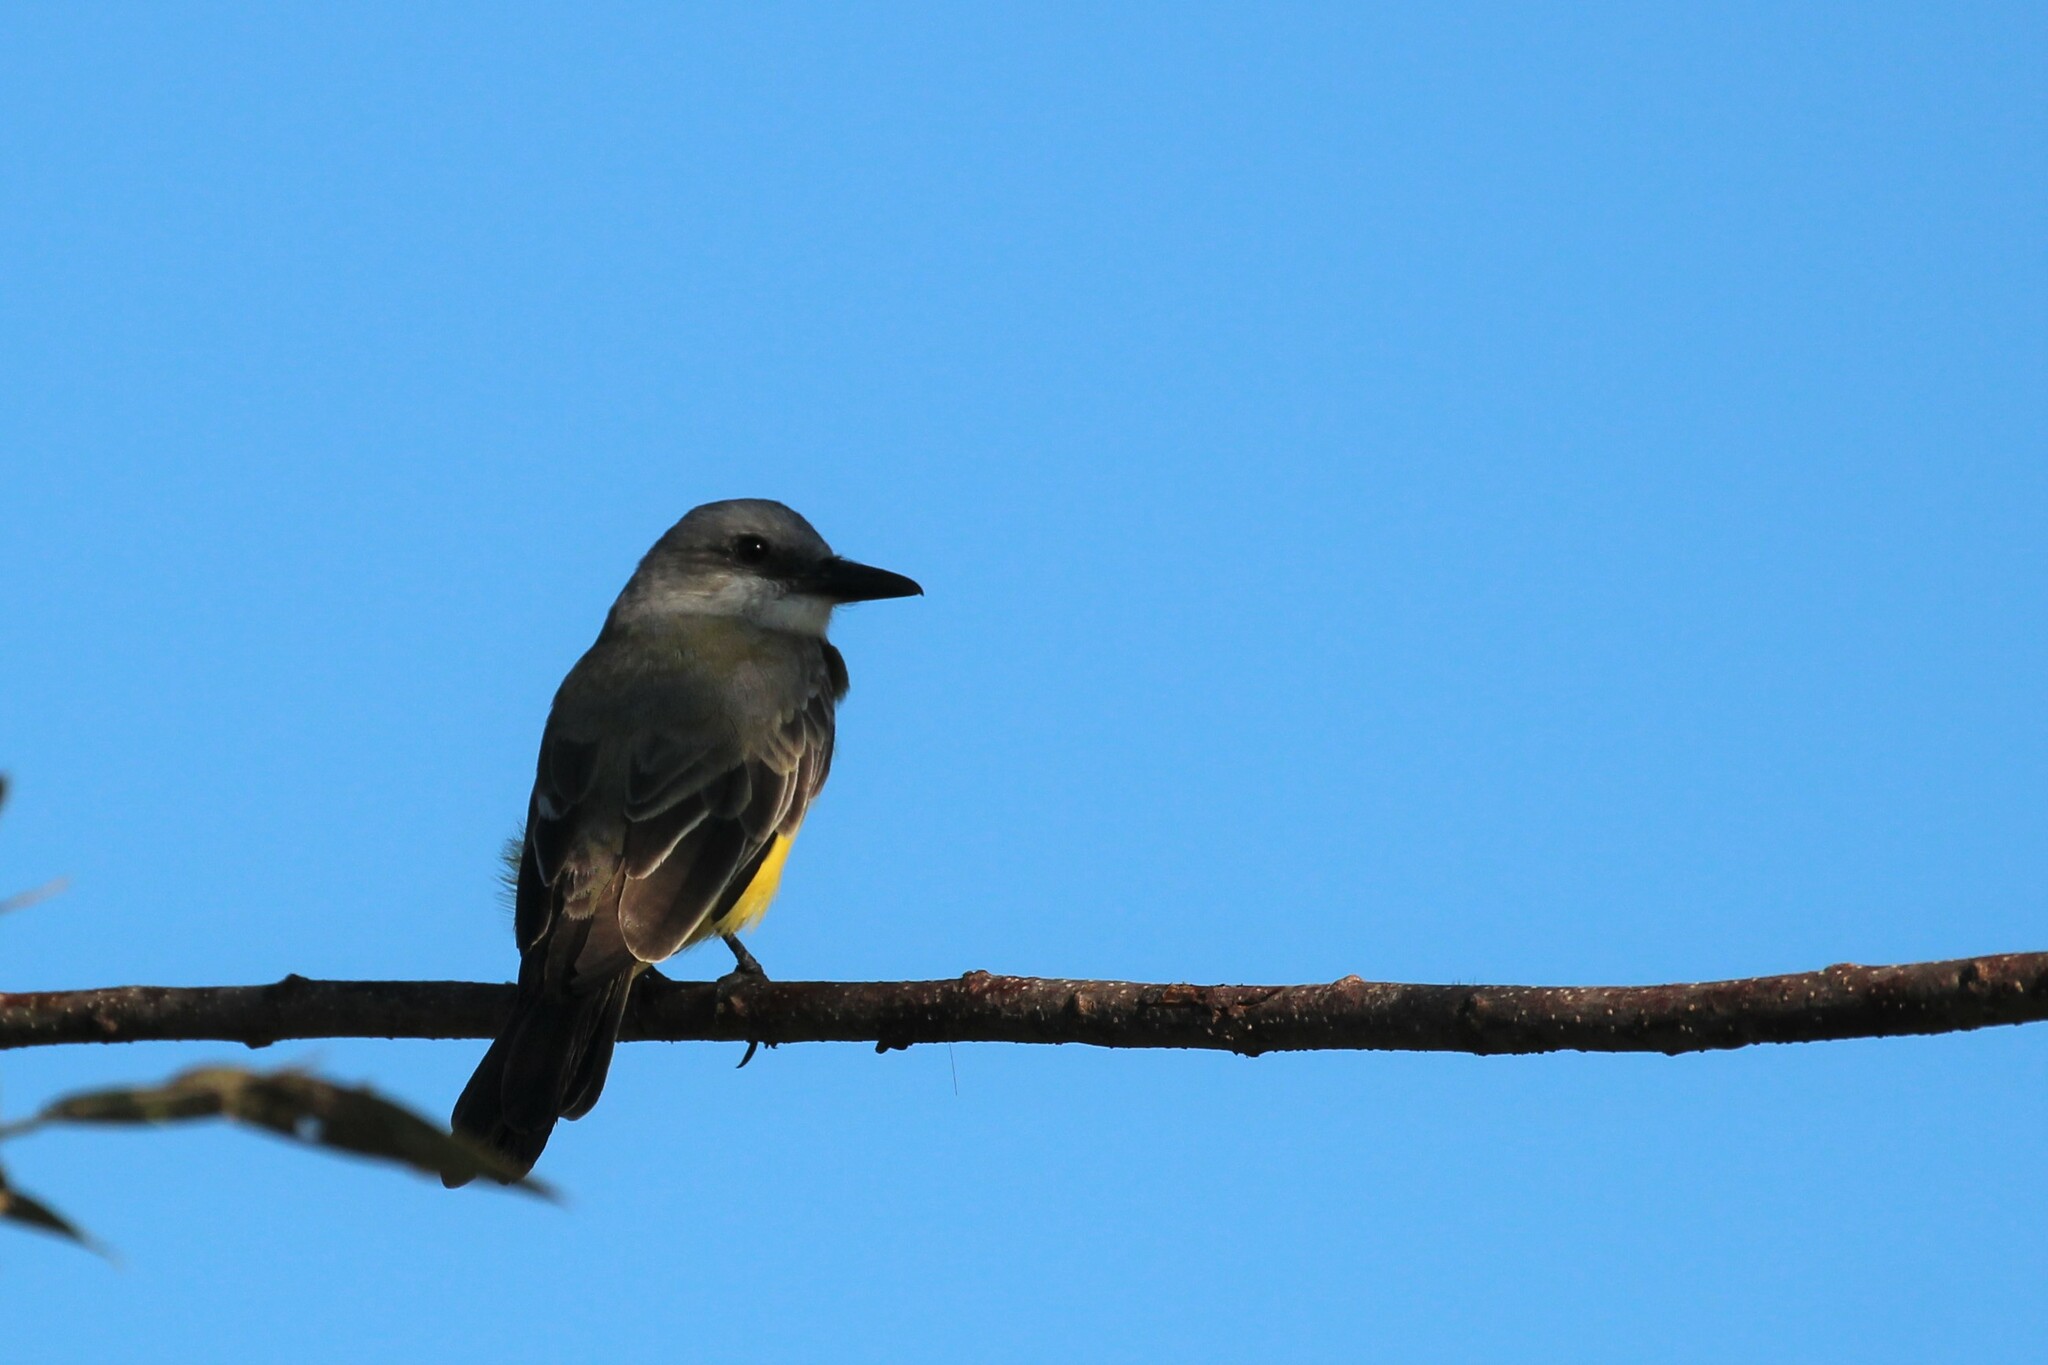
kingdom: Animalia
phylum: Chordata
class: Aves
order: Passeriformes
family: Tyrannidae
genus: Tyrannus
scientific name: Tyrannus melancholicus
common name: Tropical kingbird
